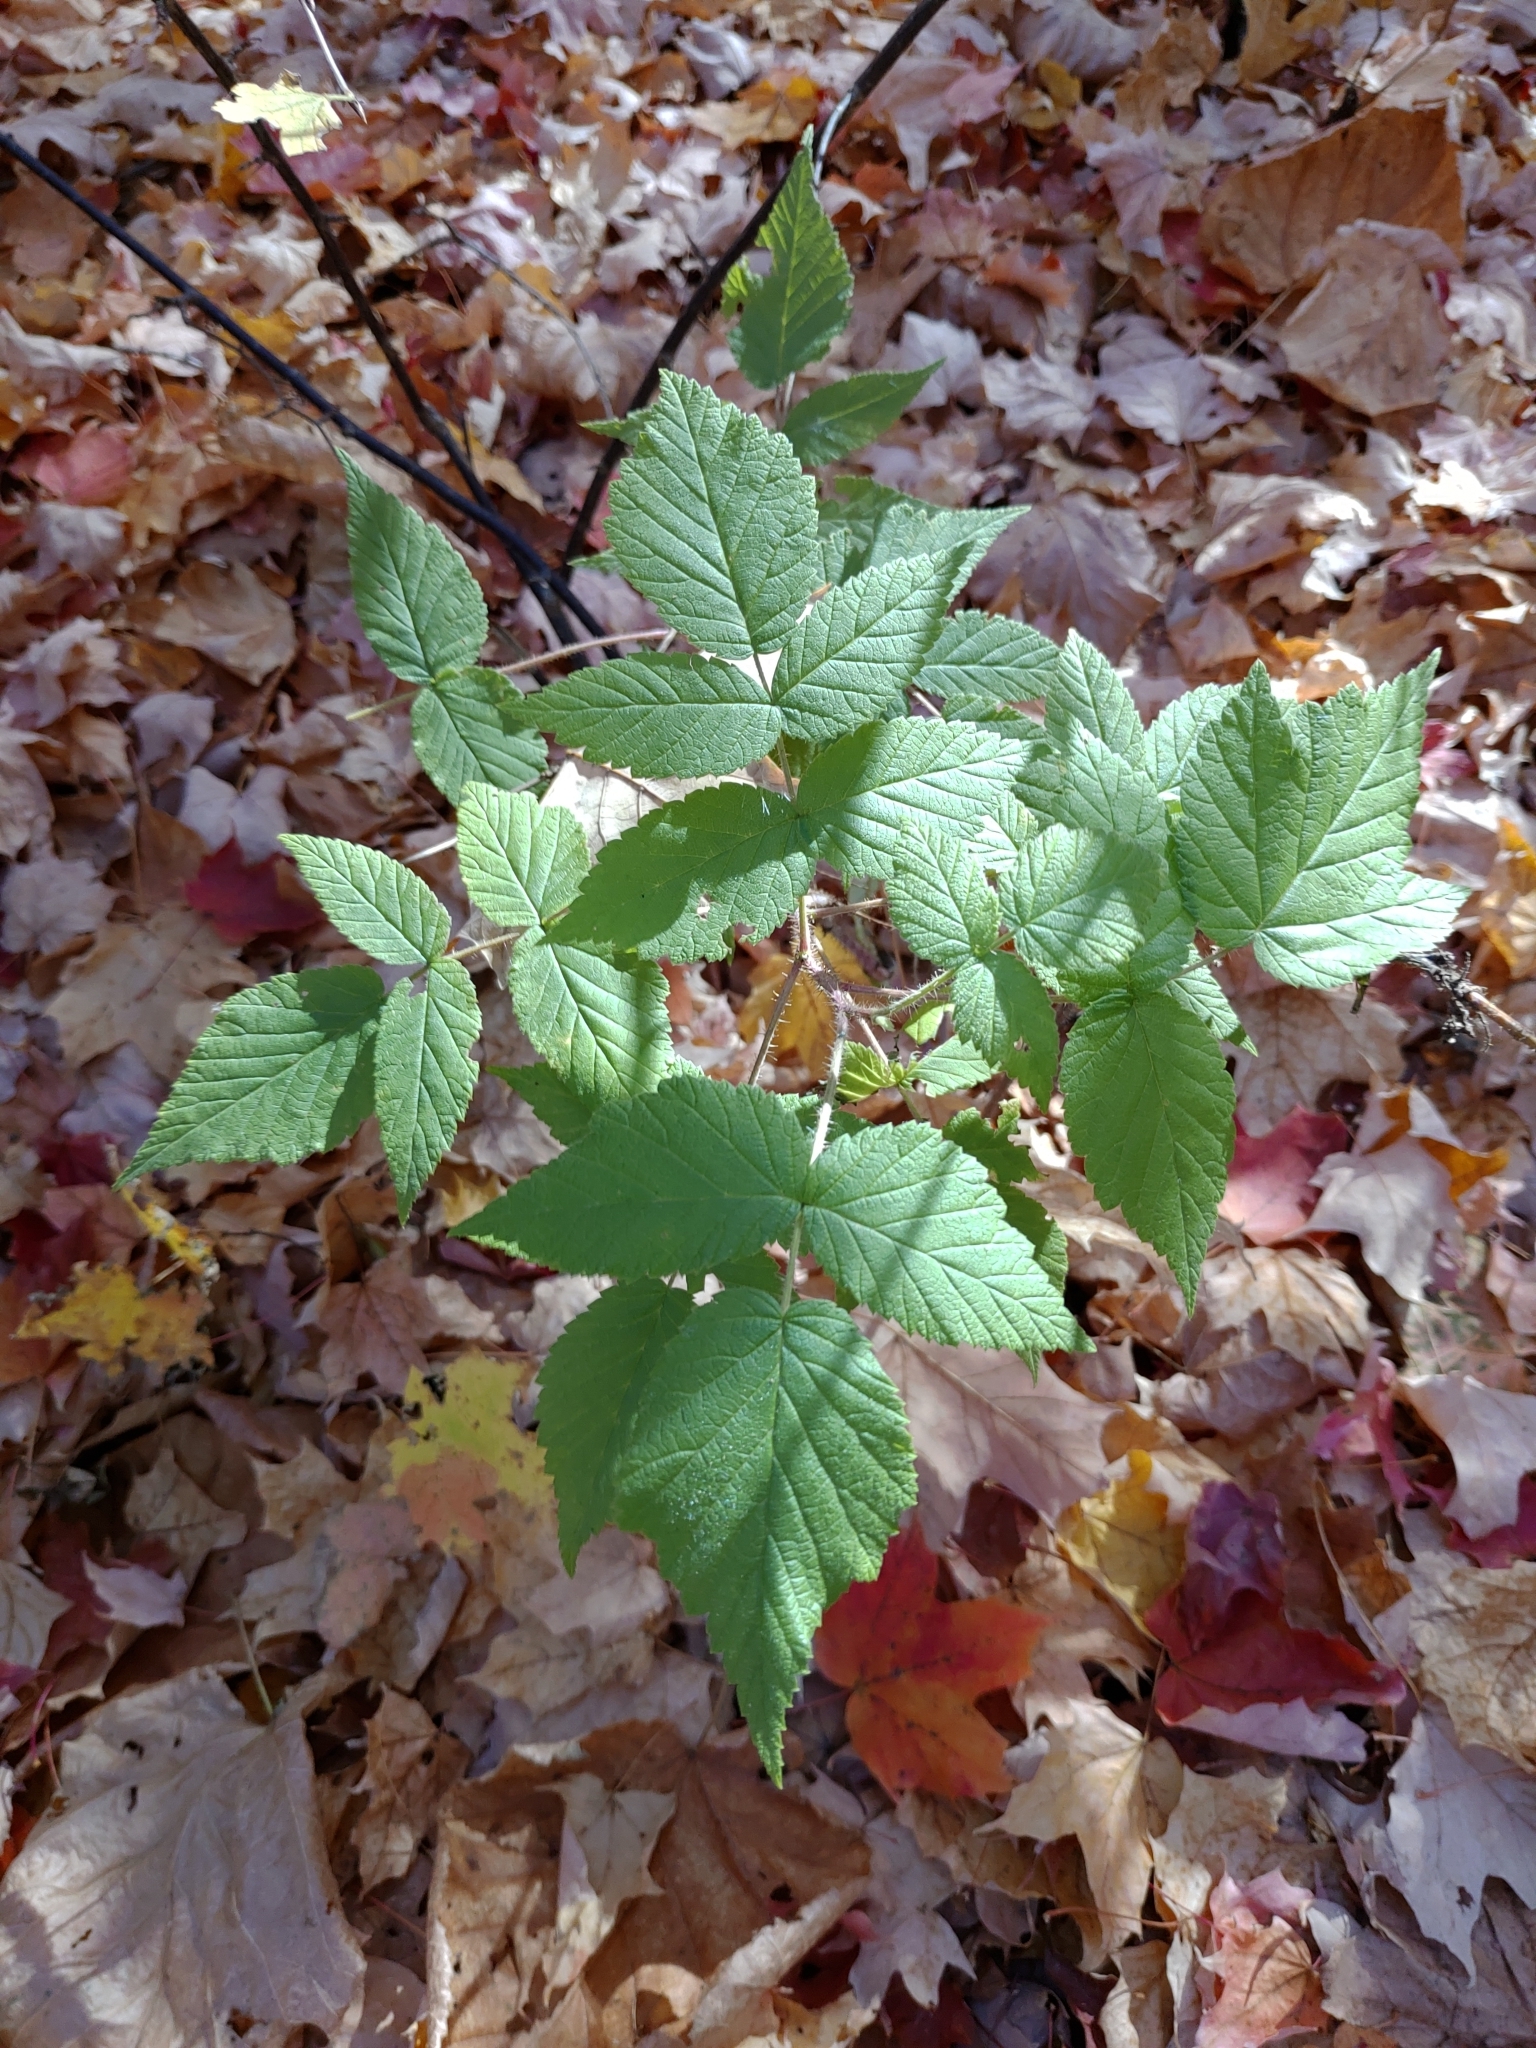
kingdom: Plantae
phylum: Tracheophyta
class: Magnoliopsida
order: Rosales
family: Rosaceae
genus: Rubus
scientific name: Rubus idaeus
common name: Raspberry
